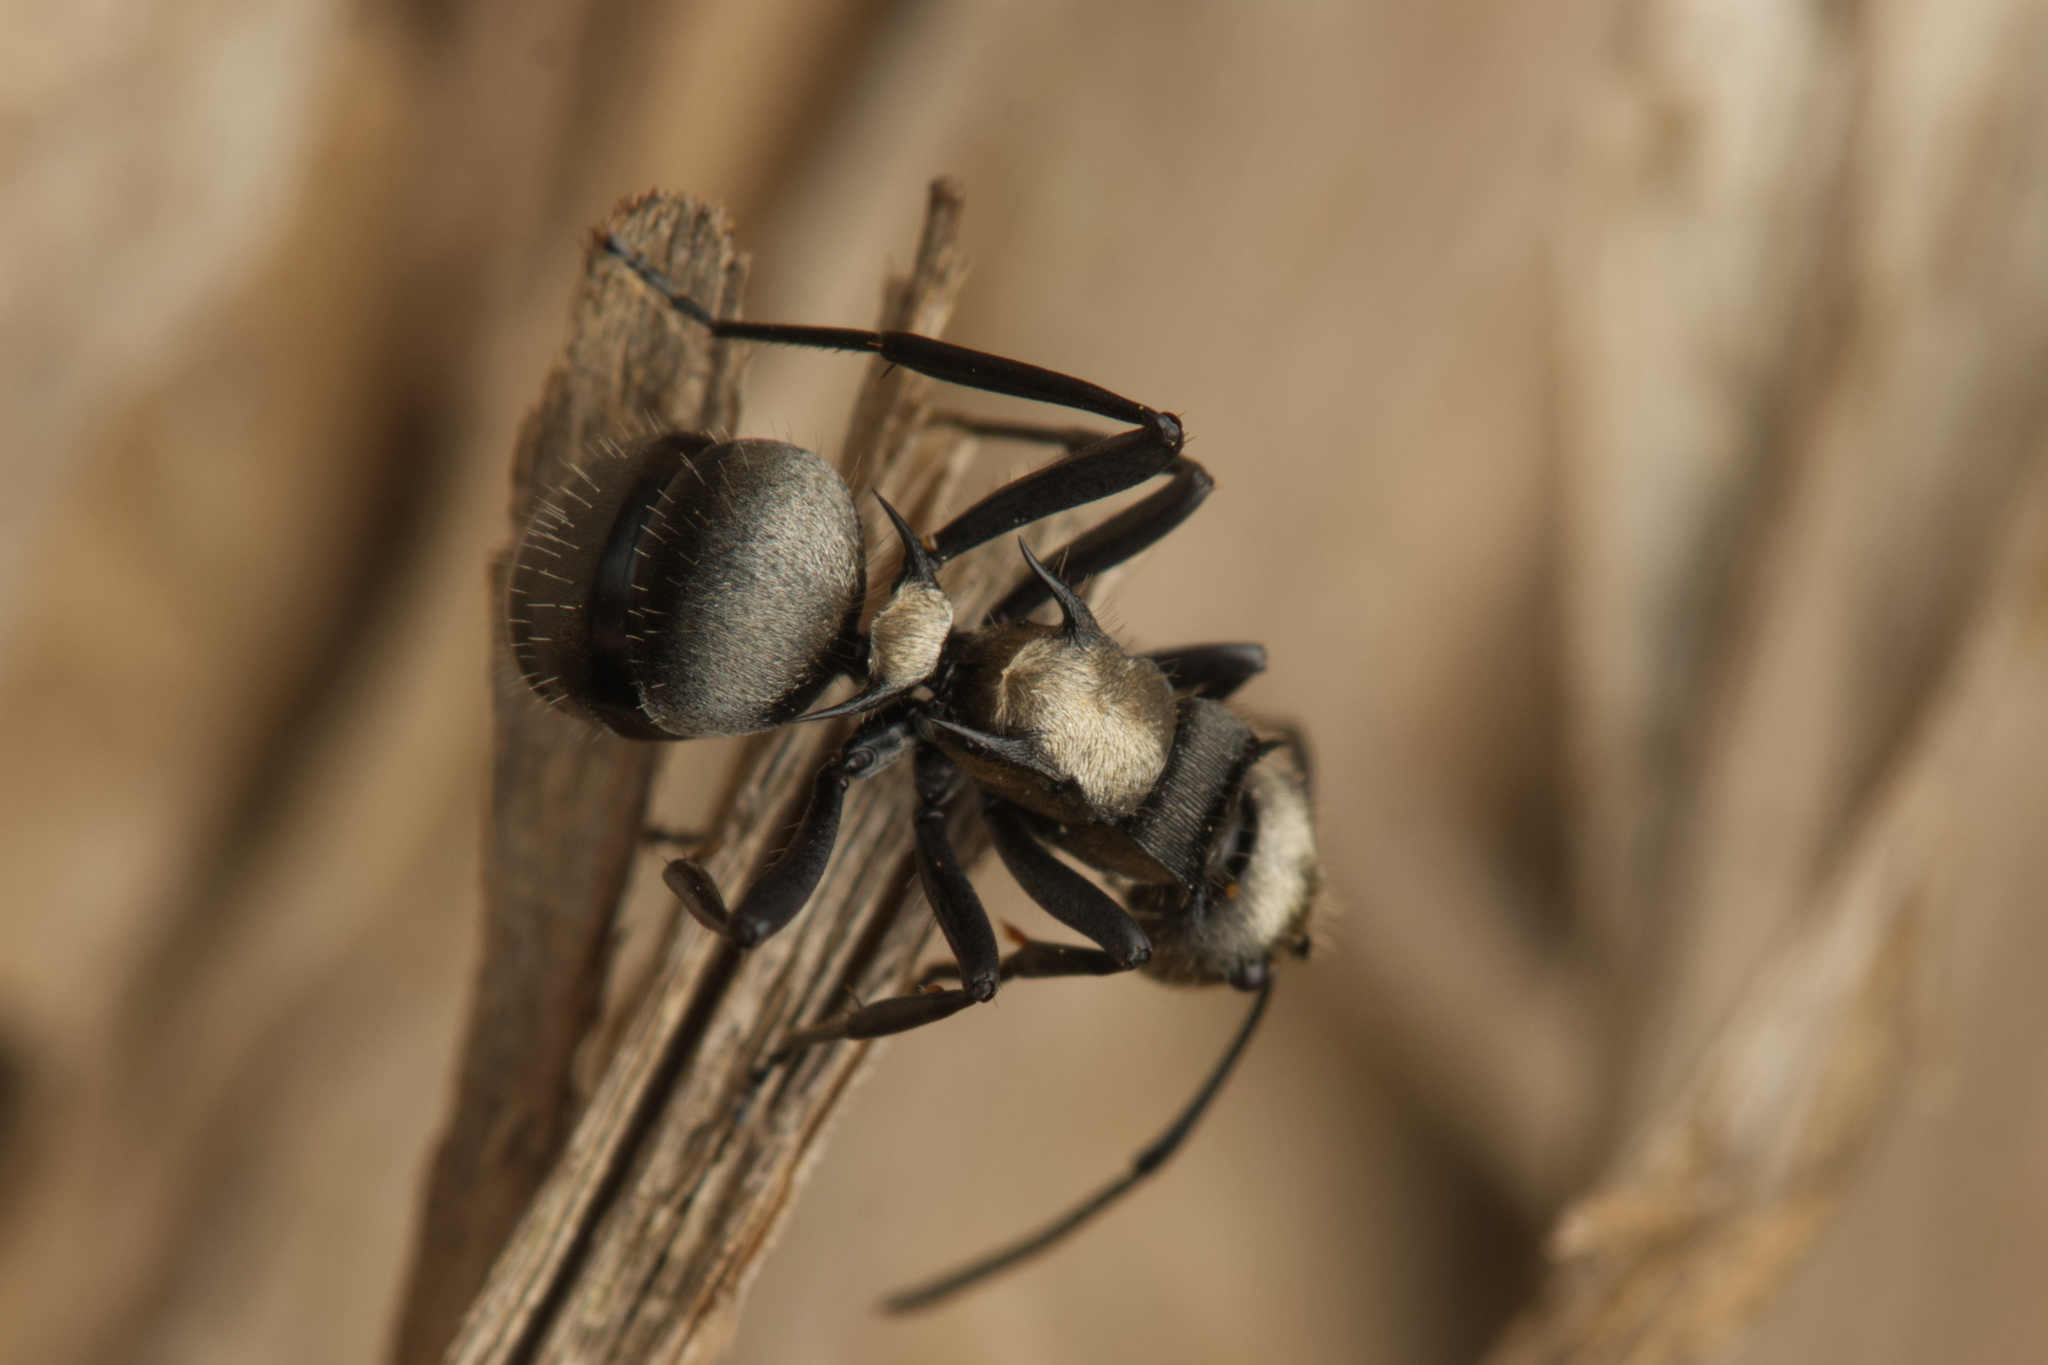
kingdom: Animalia
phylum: Arthropoda
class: Insecta
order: Hymenoptera
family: Formicidae
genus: Polyrhachis
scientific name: Polyrhachis daemeli
